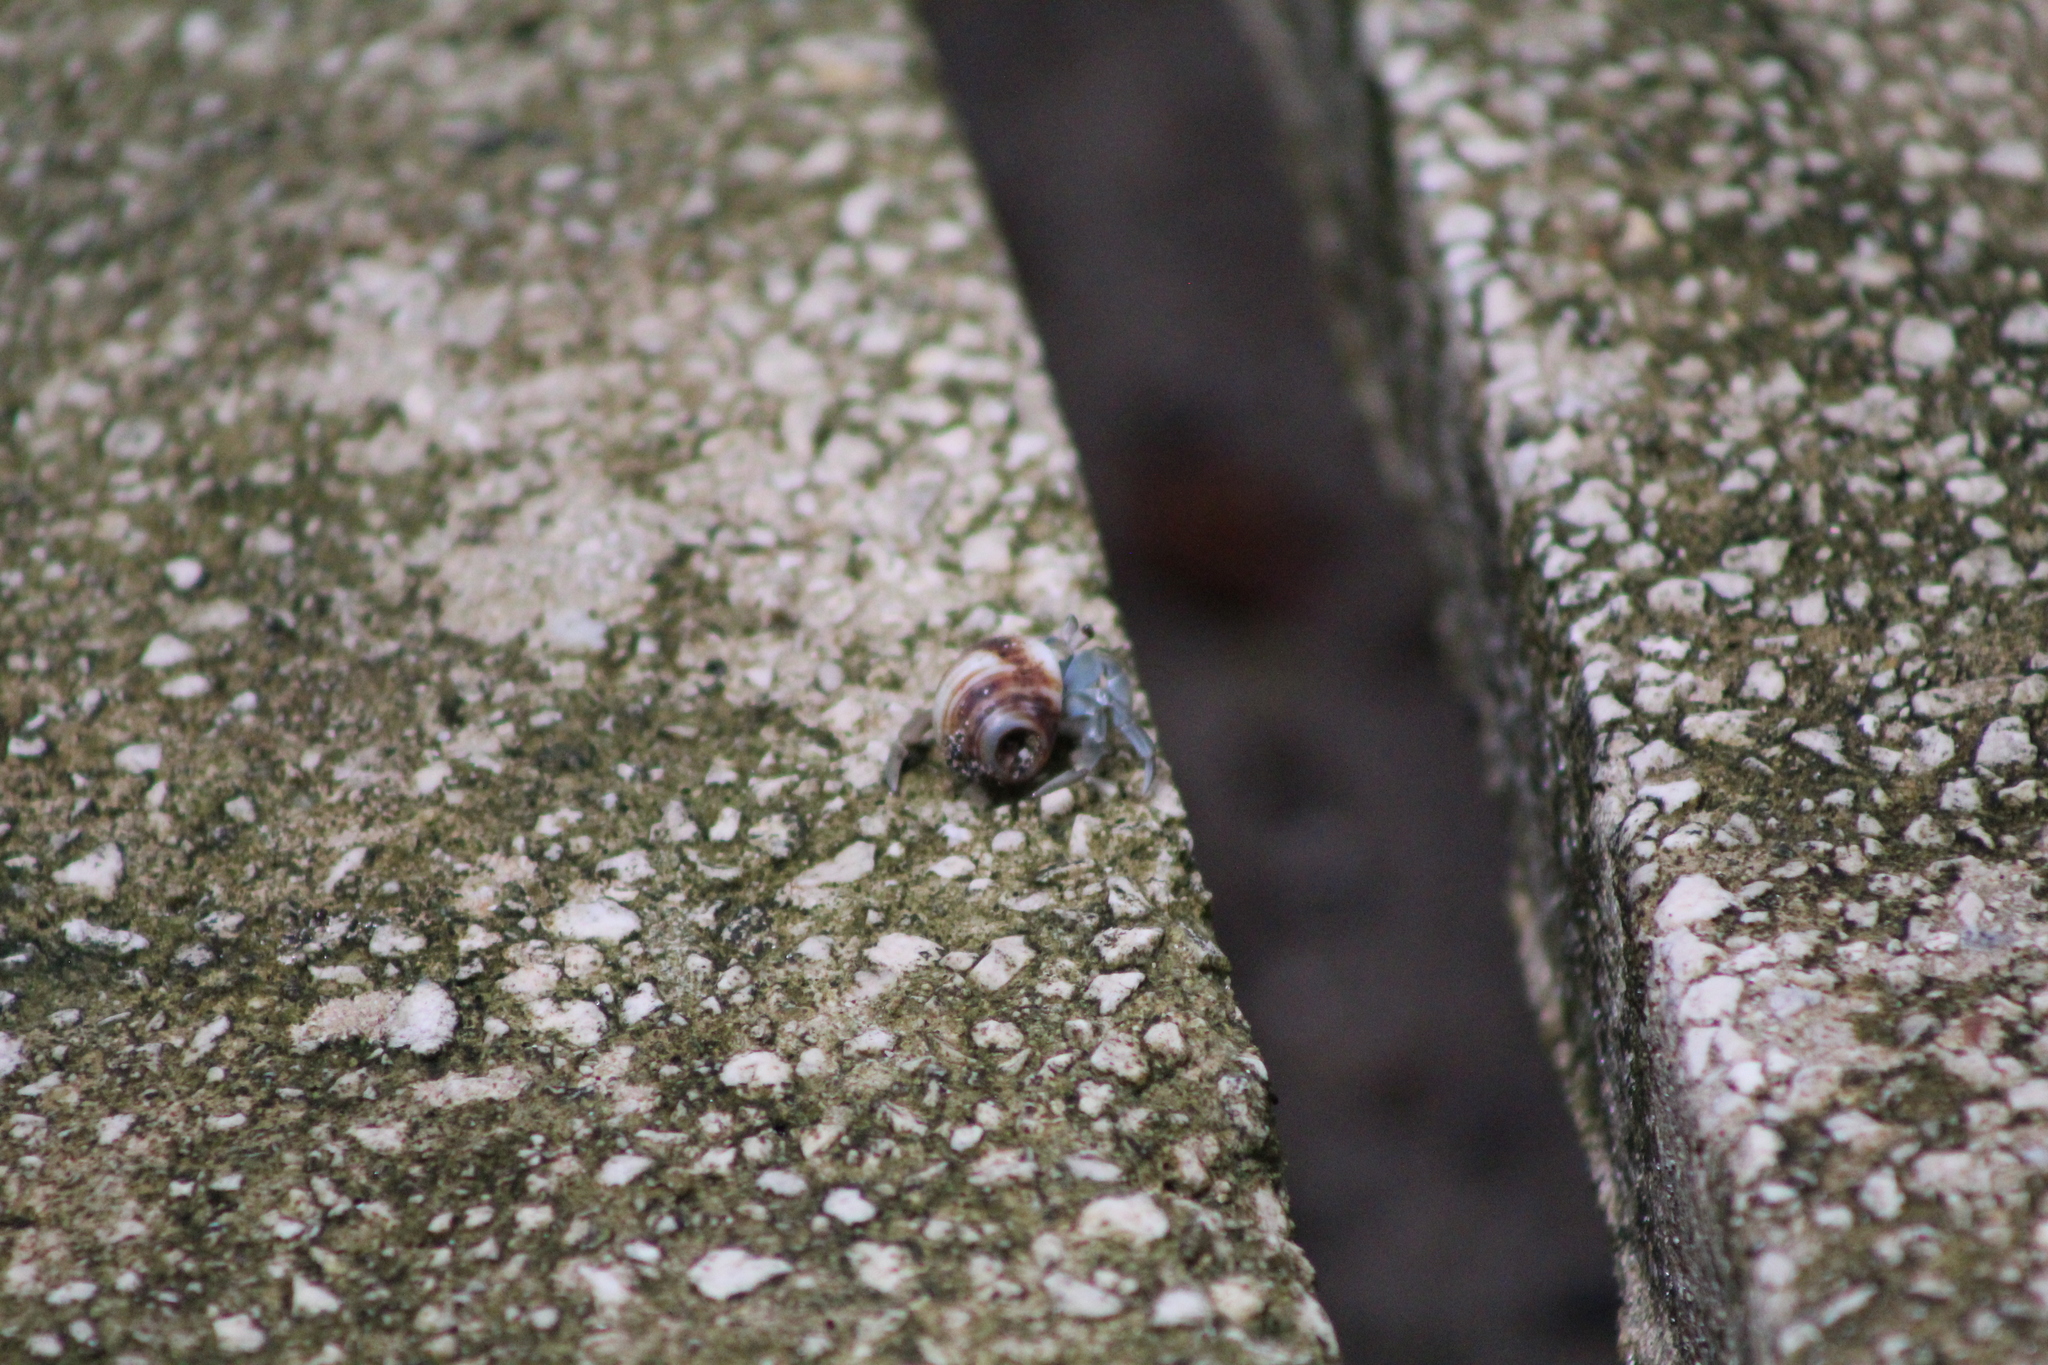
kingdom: Animalia
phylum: Arthropoda
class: Malacostraca
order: Decapoda
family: Coenobitidae
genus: Coenobita
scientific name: Coenobita compressus
